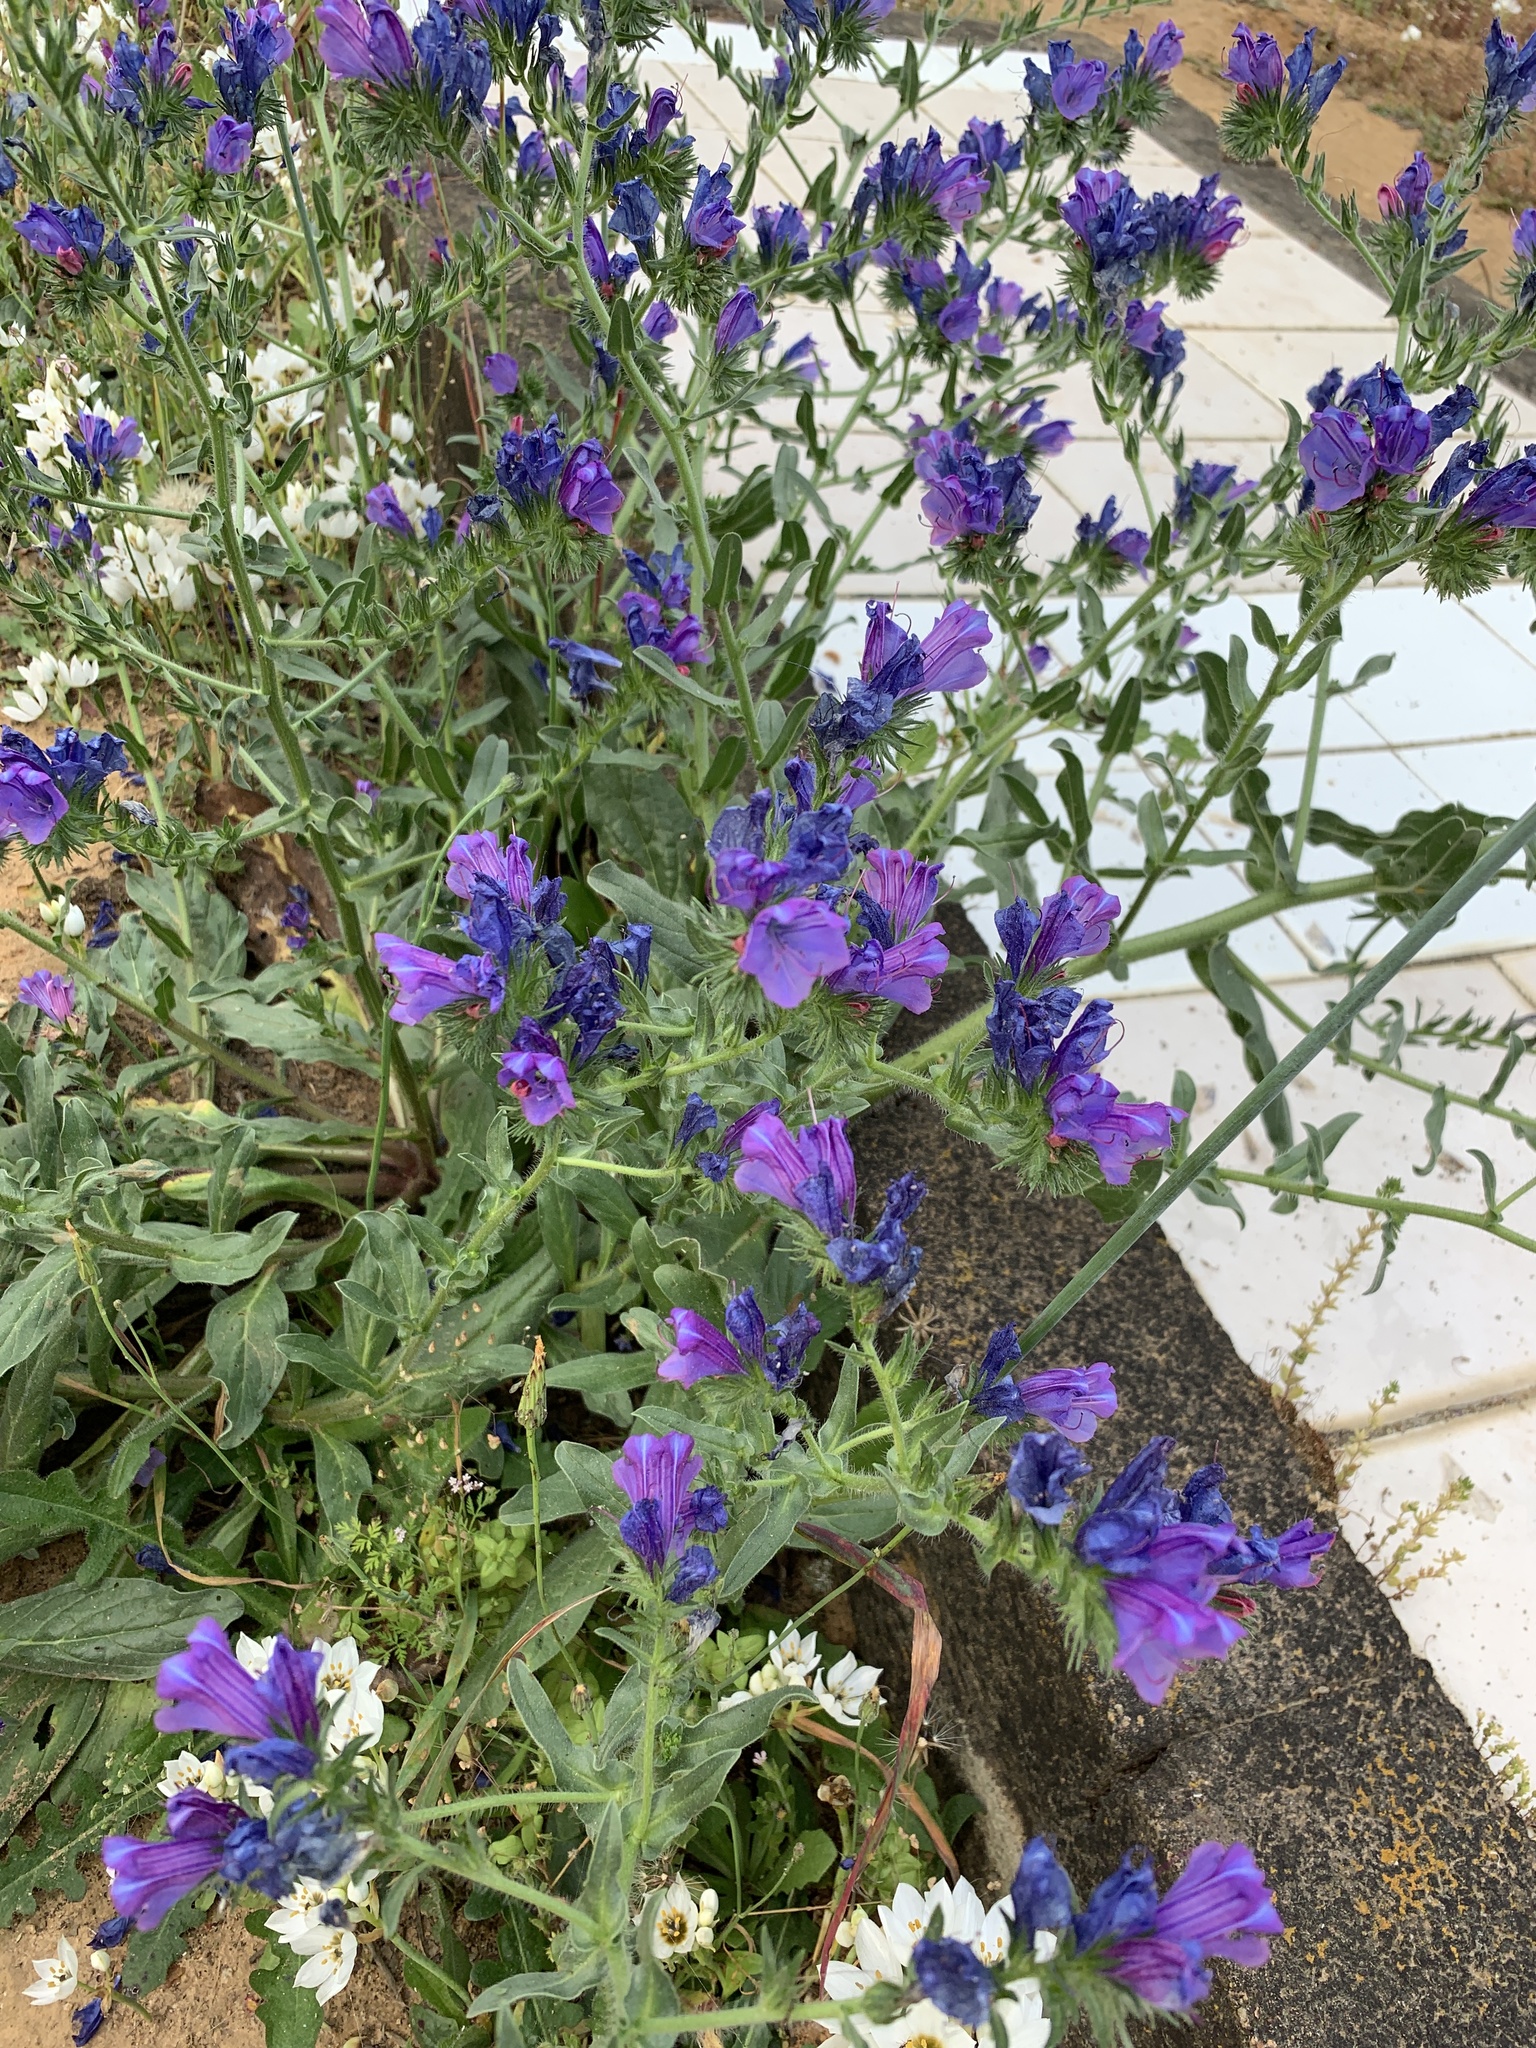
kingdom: Plantae
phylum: Tracheophyta
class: Magnoliopsida
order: Boraginales
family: Boraginaceae
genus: Echium
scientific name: Echium plantagineum
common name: Purple viper's-bugloss
